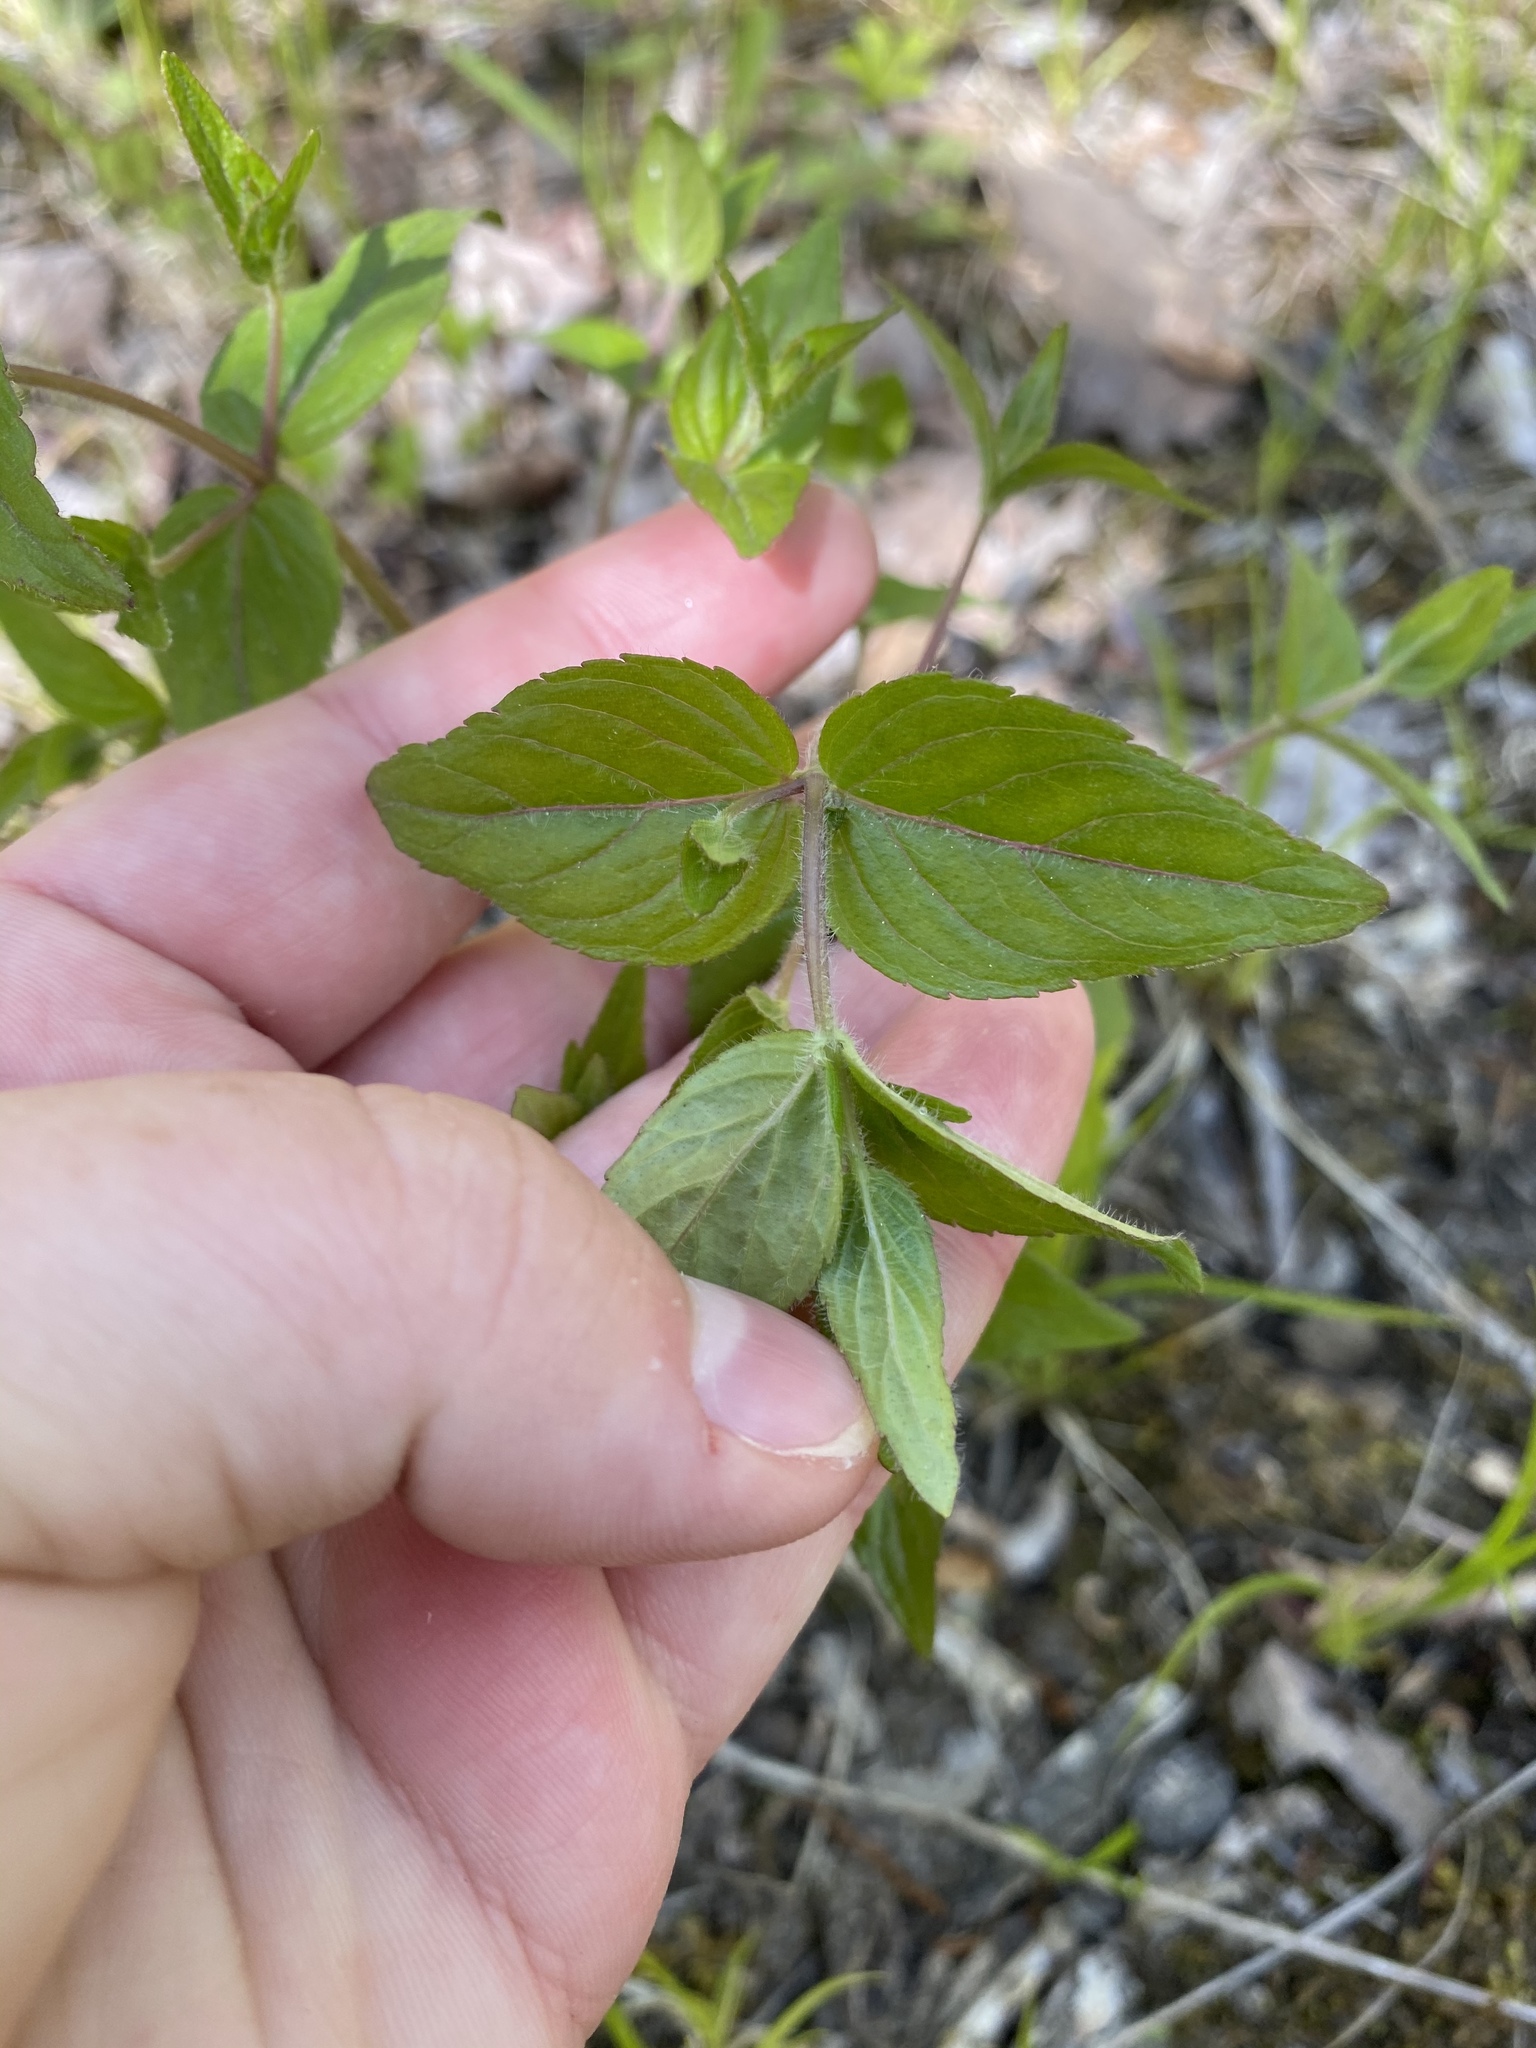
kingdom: Plantae
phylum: Tracheophyta
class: Magnoliopsida
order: Lamiales
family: Lamiaceae
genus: Cunila
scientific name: Cunila origanoides
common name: American dittany
